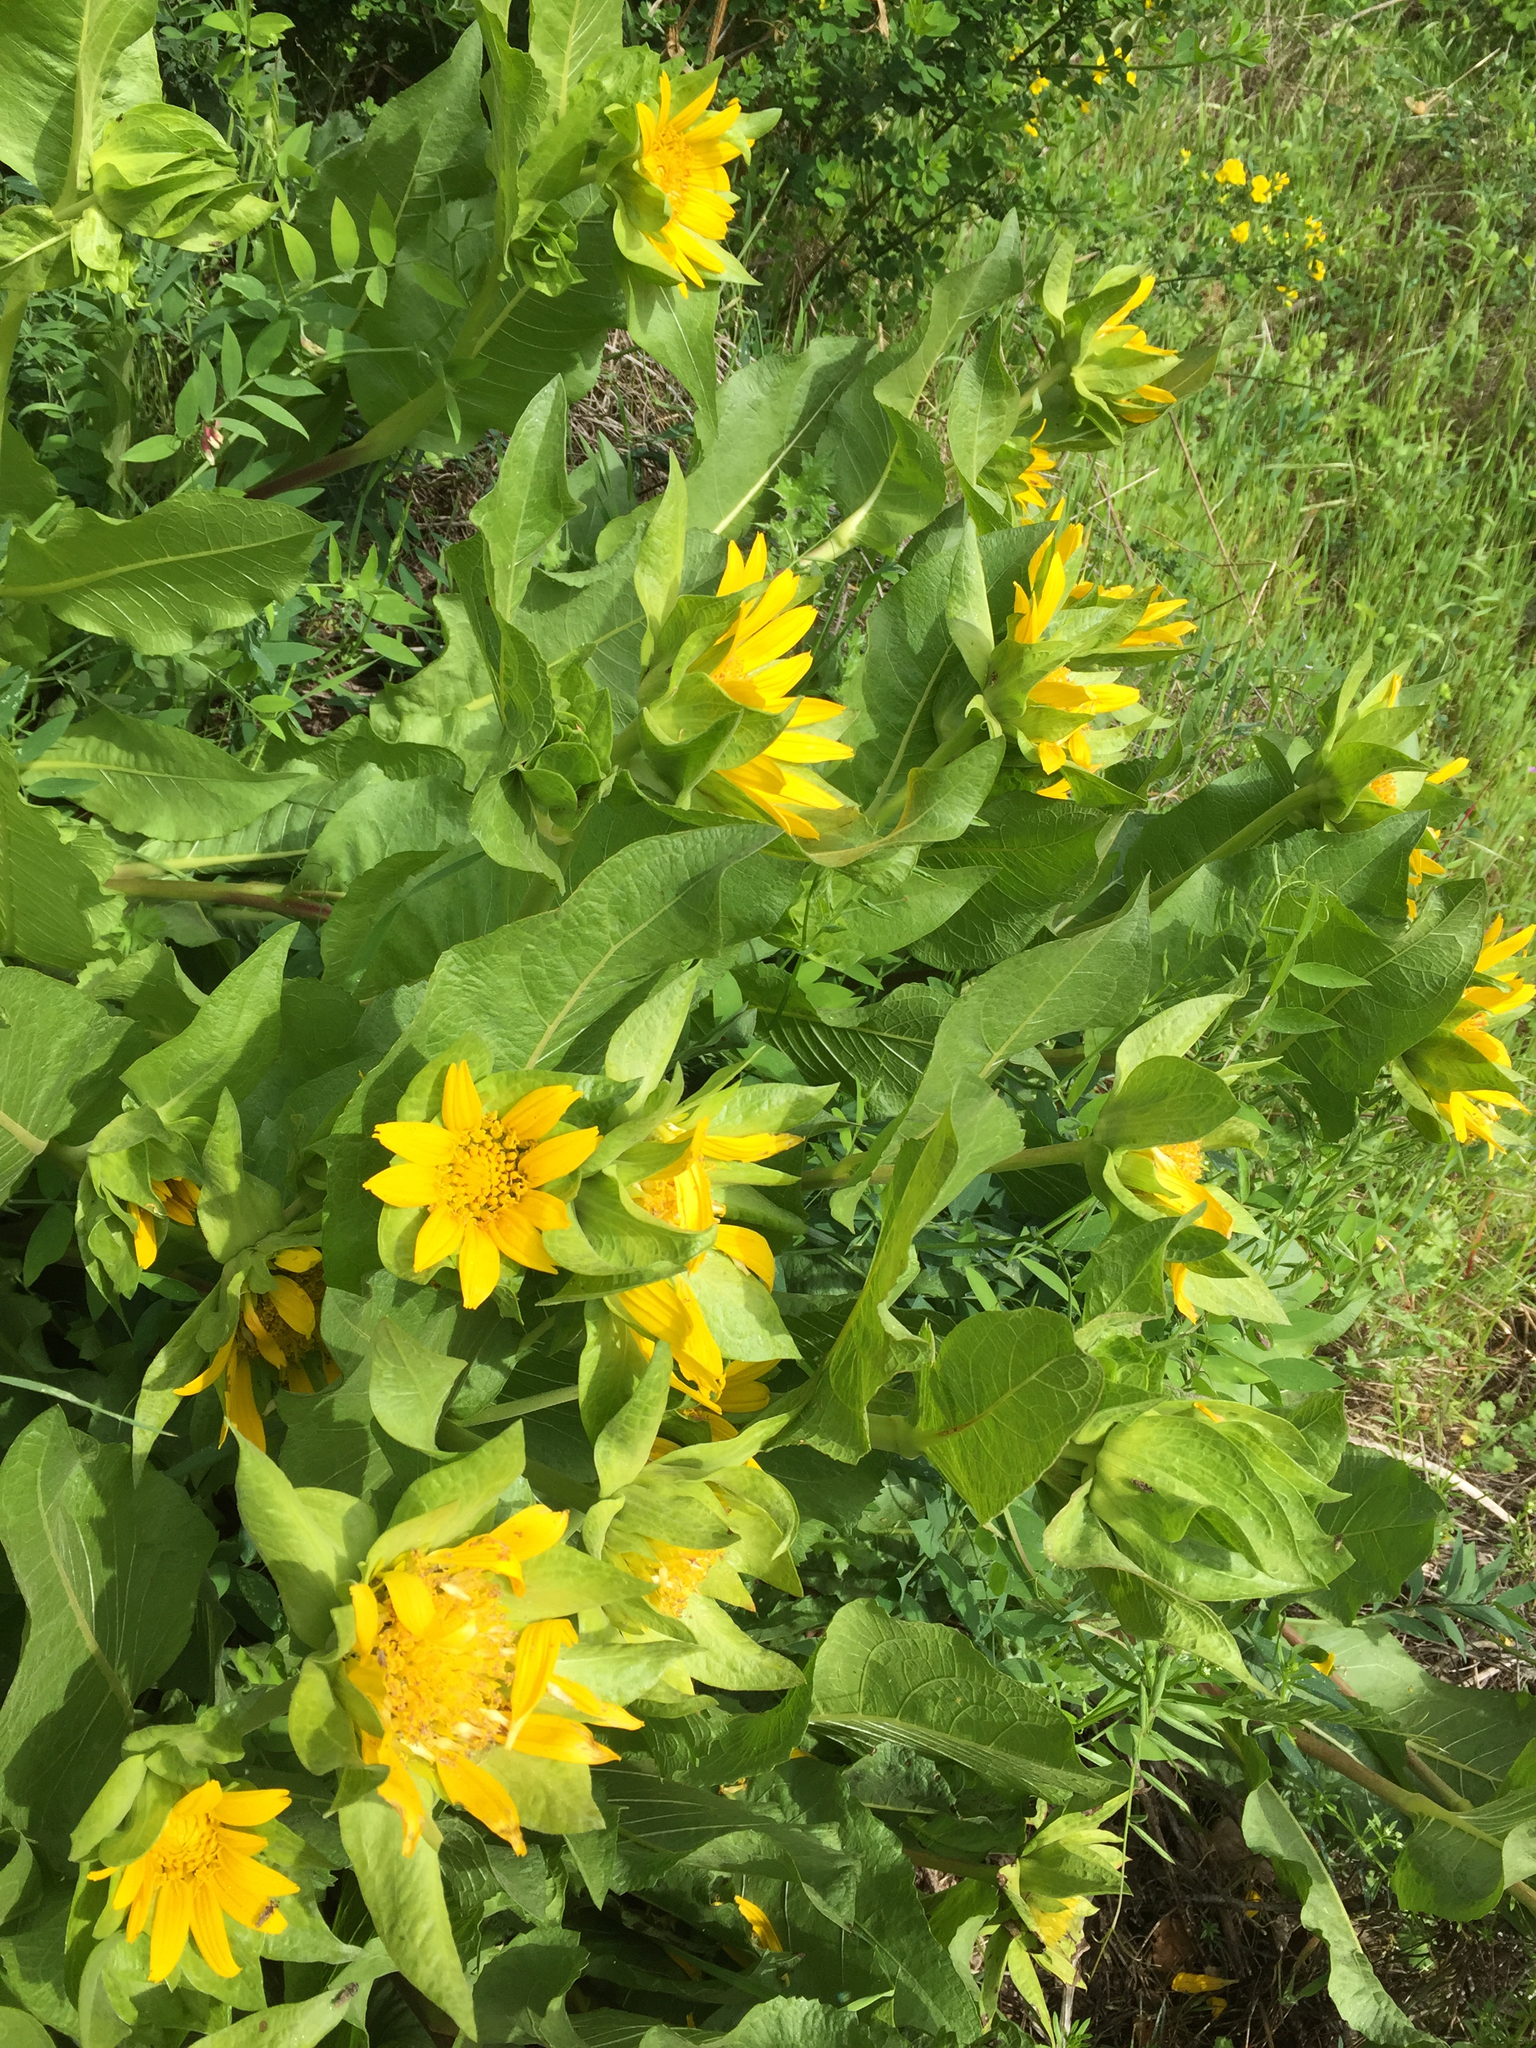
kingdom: Plantae
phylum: Tracheophyta
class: Magnoliopsida
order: Asterales
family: Asteraceae
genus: Wyethia
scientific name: Wyethia glabra
